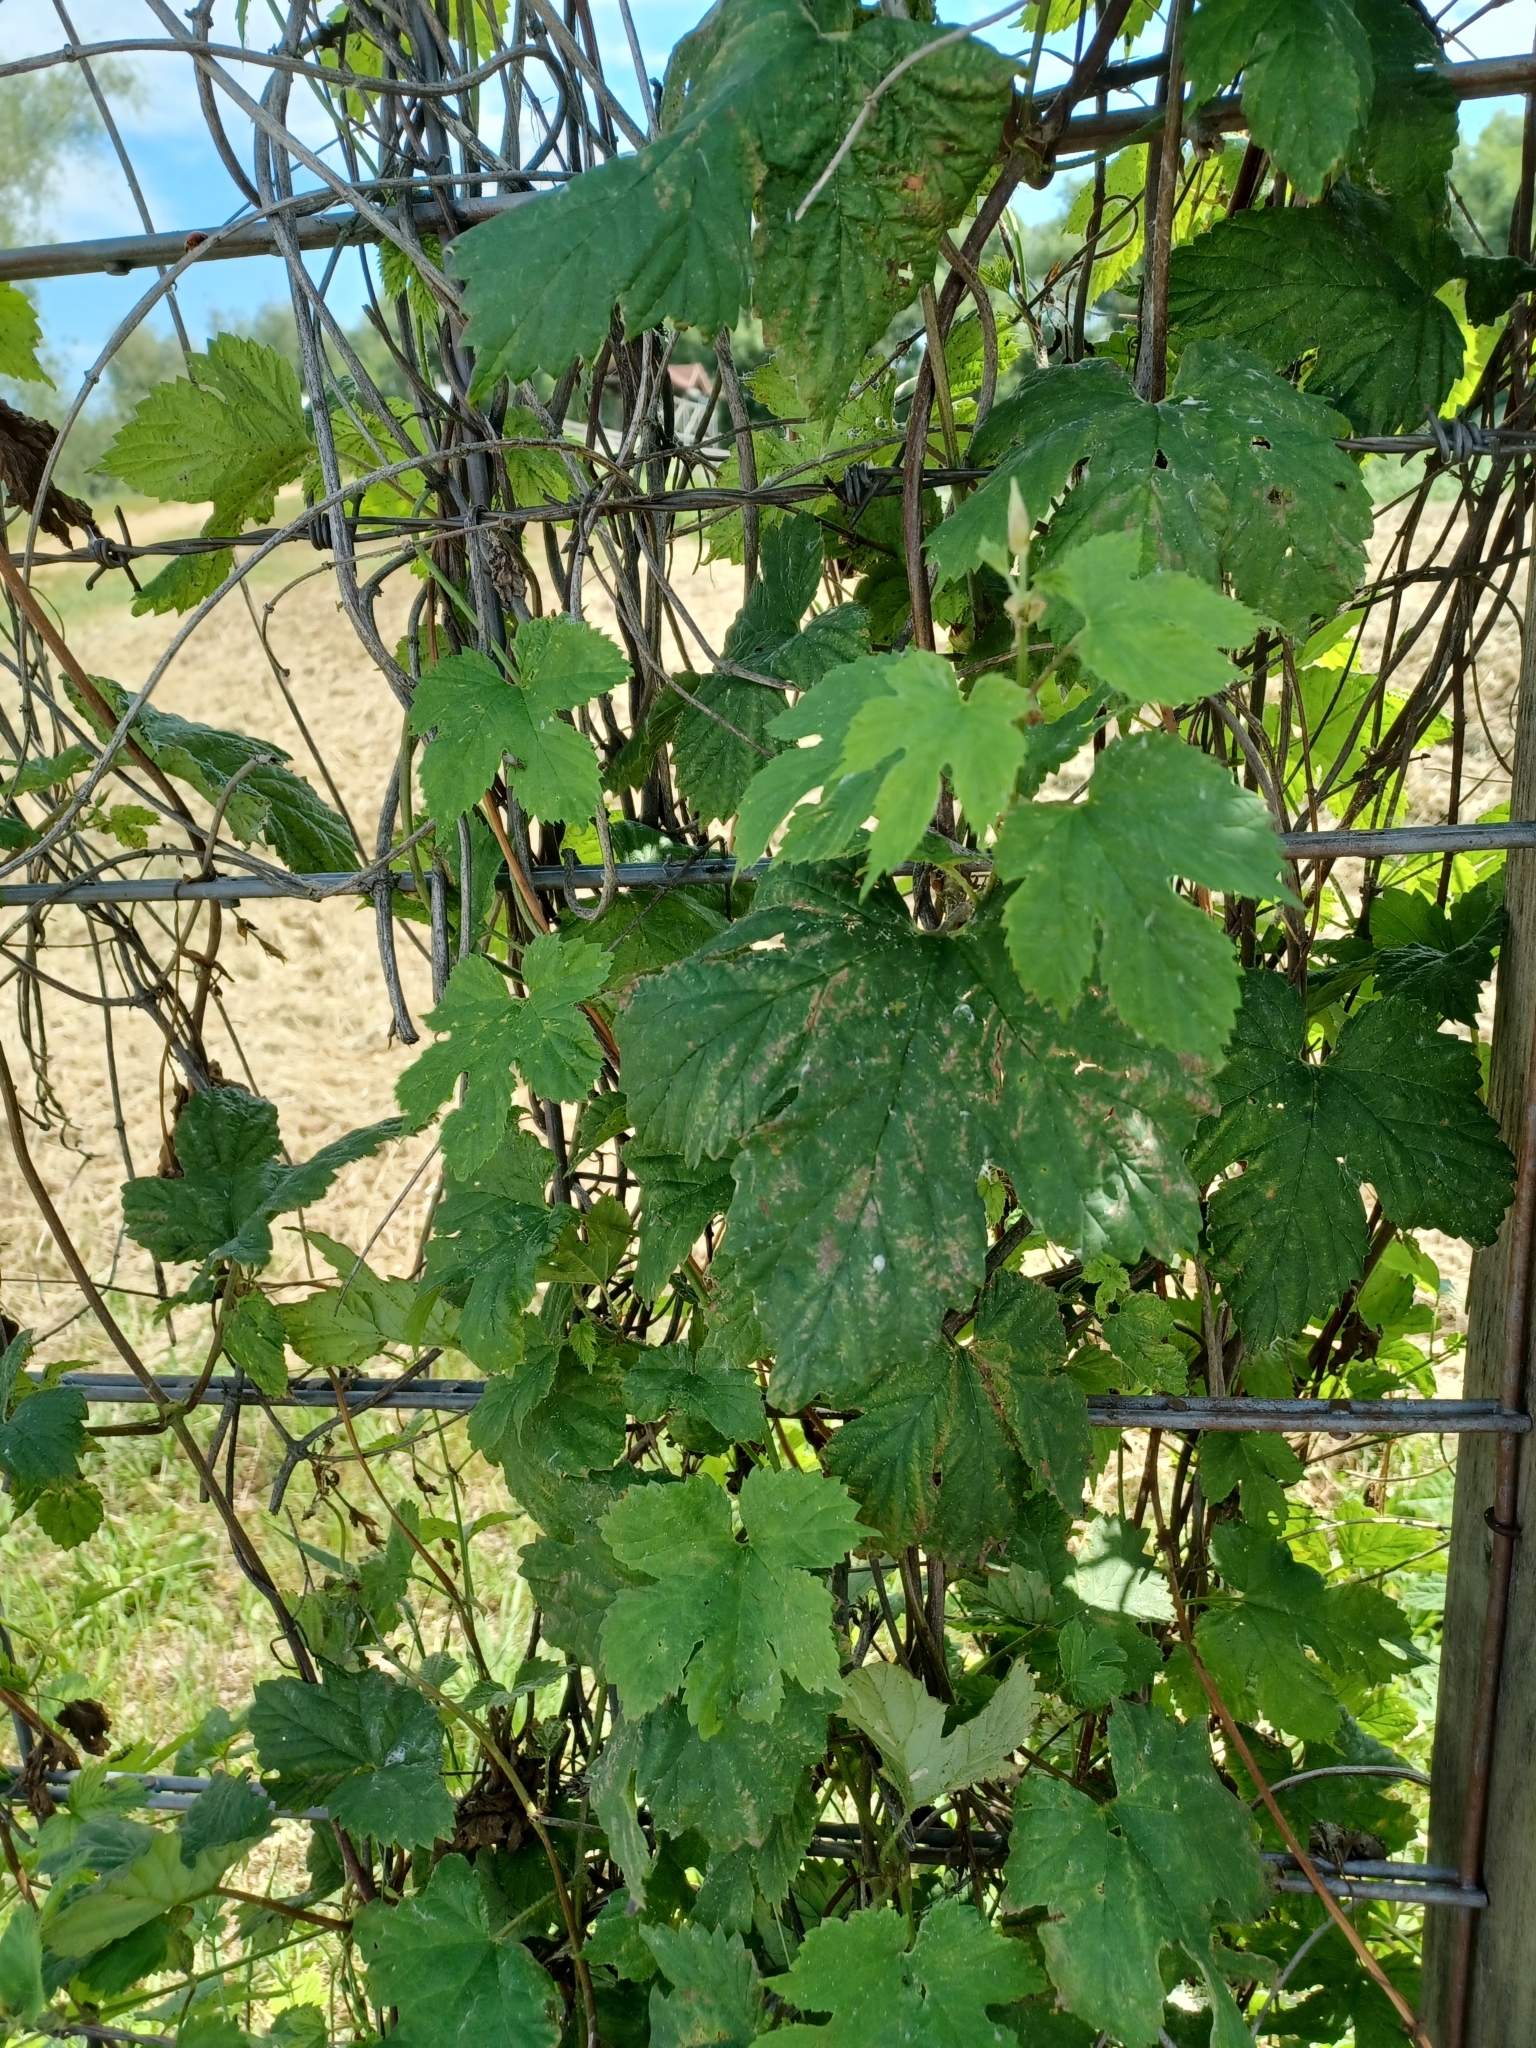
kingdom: Plantae
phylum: Tracheophyta
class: Magnoliopsida
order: Rosales
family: Cannabaceae
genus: Humulus
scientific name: Humulus lupulus
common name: Hop
